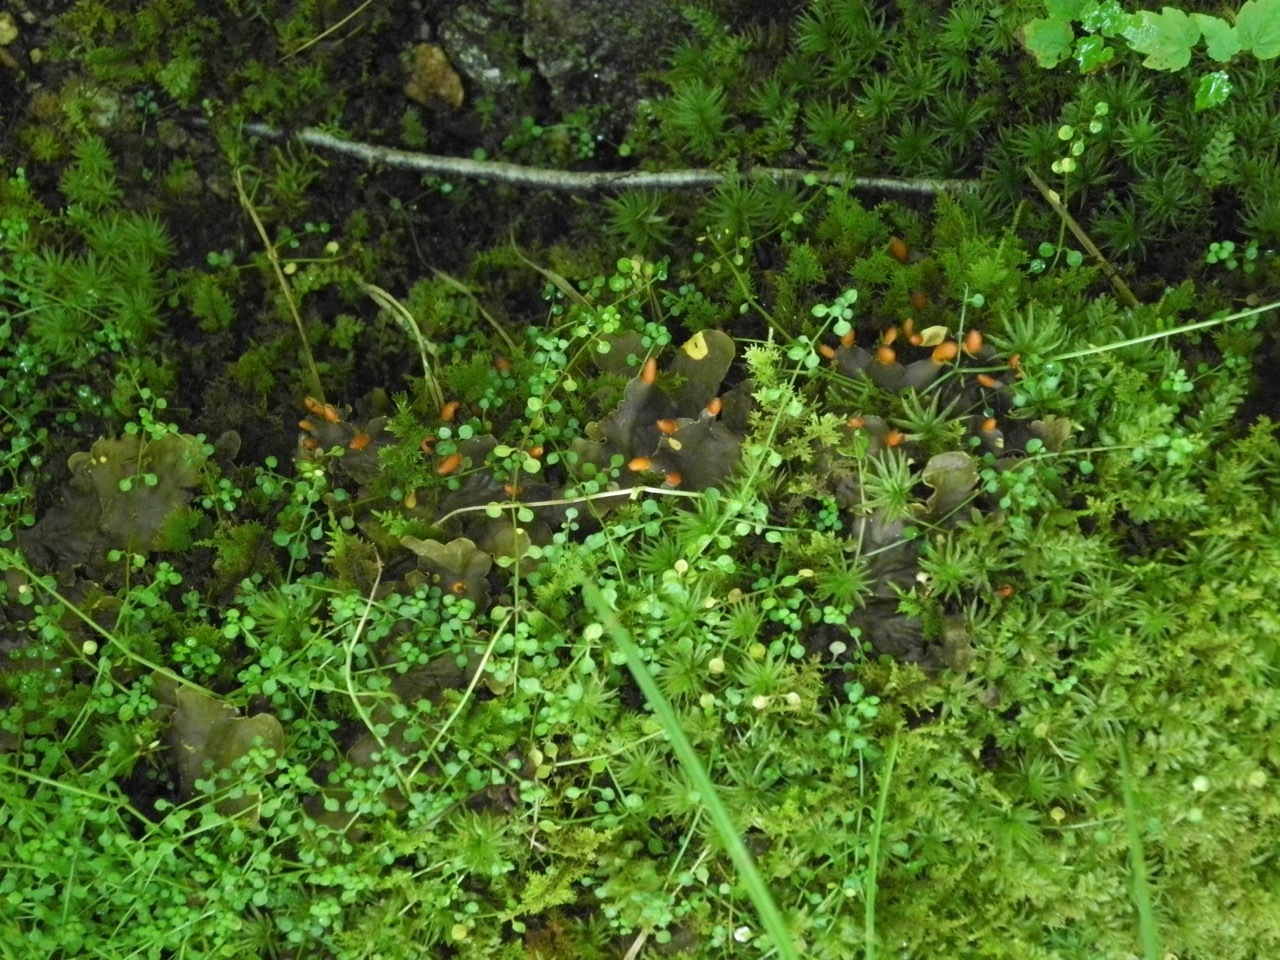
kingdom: Fungi
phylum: Ascomycota
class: Lecanoromycetes
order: Peltigerales
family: Peltigeraceae
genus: Peltigera
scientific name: Peltigera polydactylon
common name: Many-fruited pelt lichen
